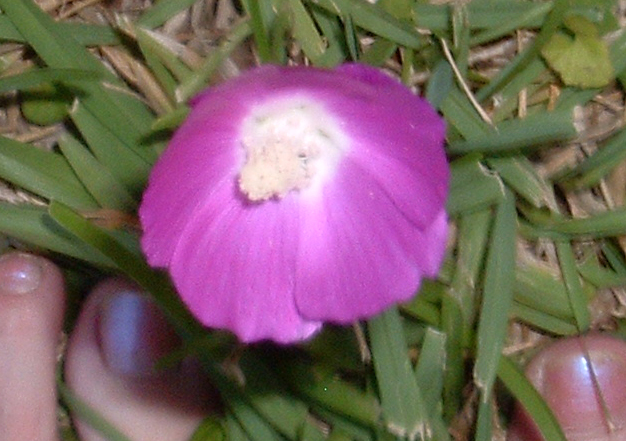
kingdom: Plantae
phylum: Tracheophyta
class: Magnoliopsida
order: Malvales
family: Malvaceae
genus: Callirhoe
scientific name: Callirhoe involucrata
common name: Purple poppy-mallow
